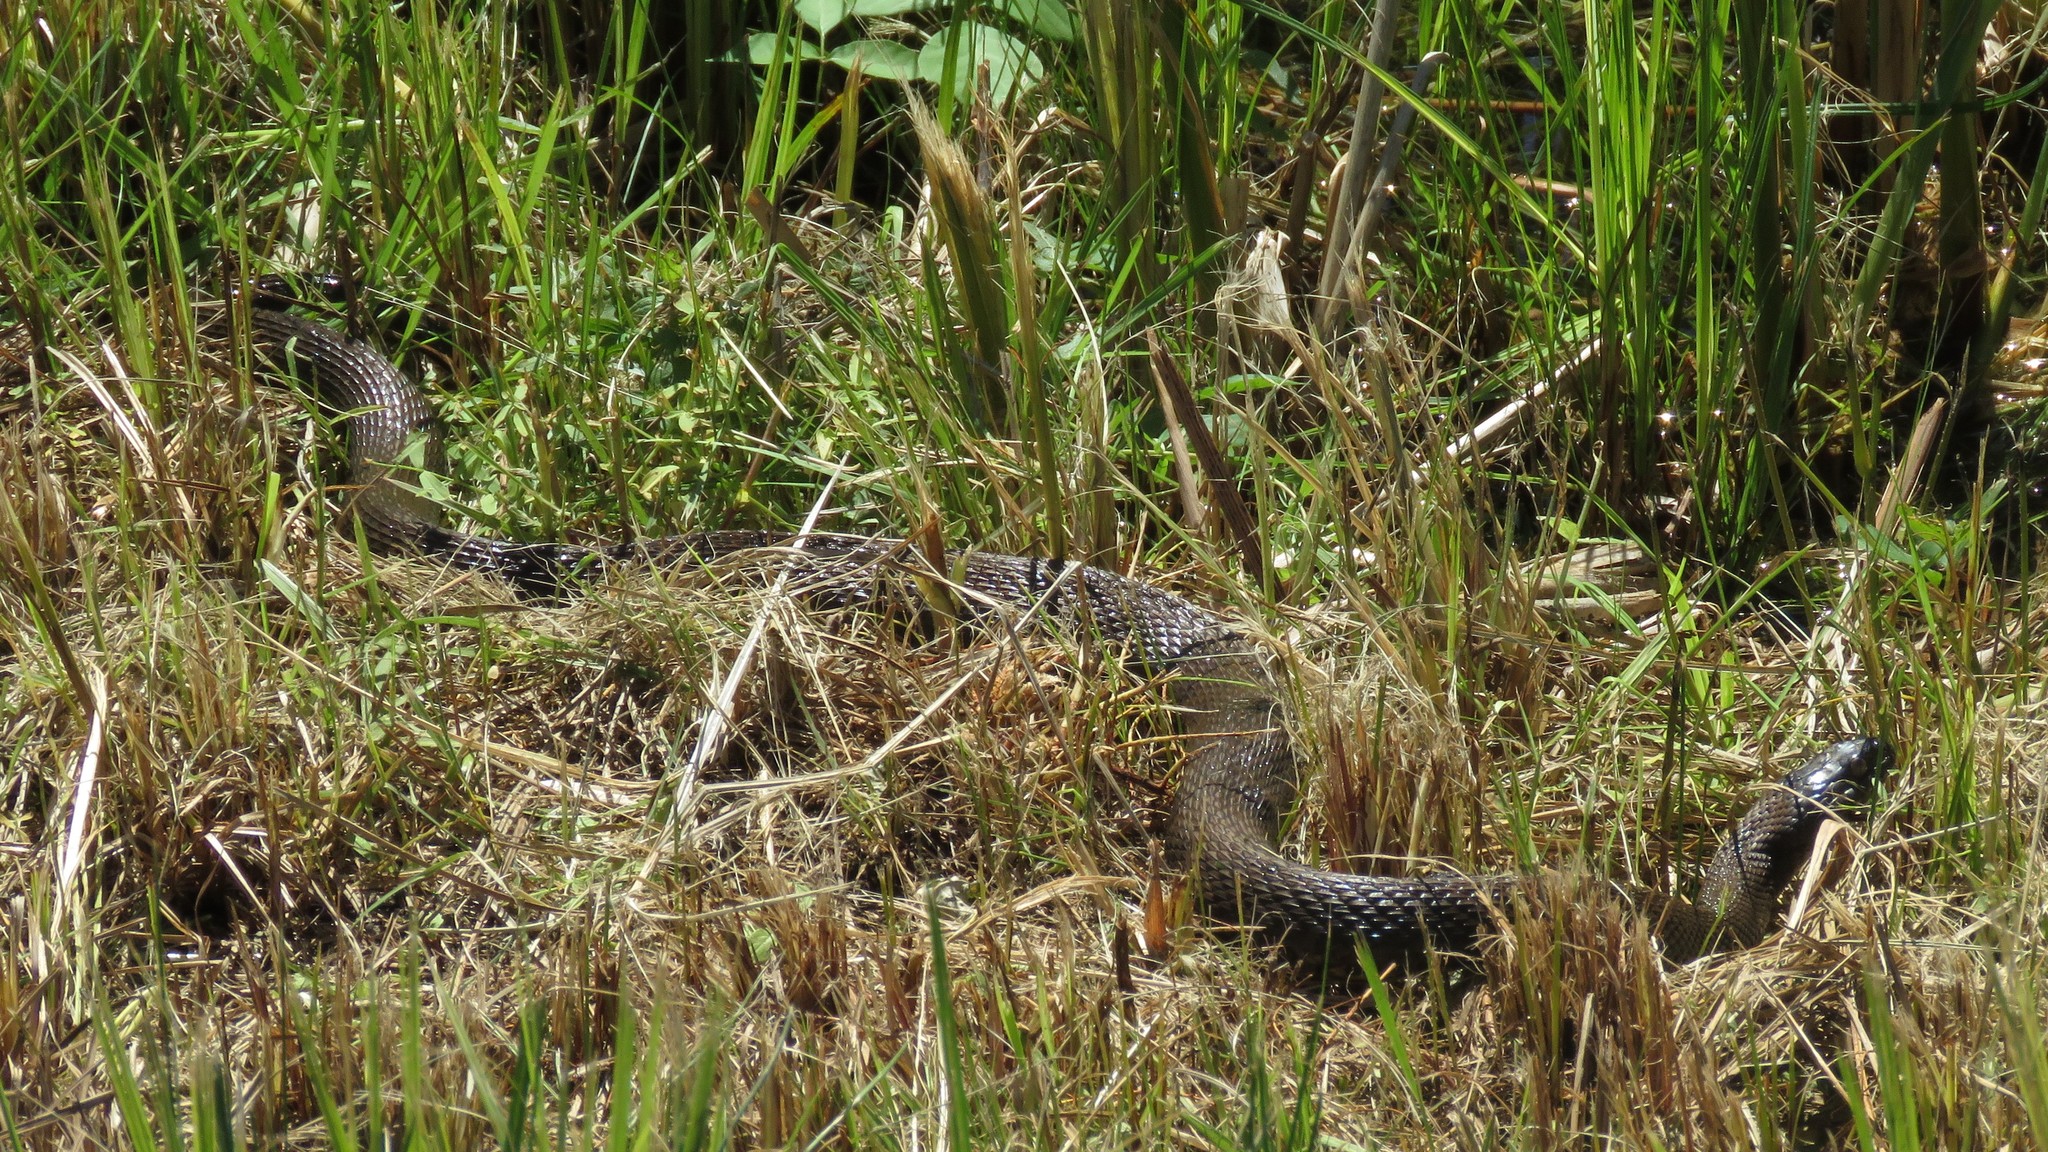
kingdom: Animalia
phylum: Chordata
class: Squamata
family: Colubridae
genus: Nerodia
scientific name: Nerodia sipedon
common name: Northern water snake
